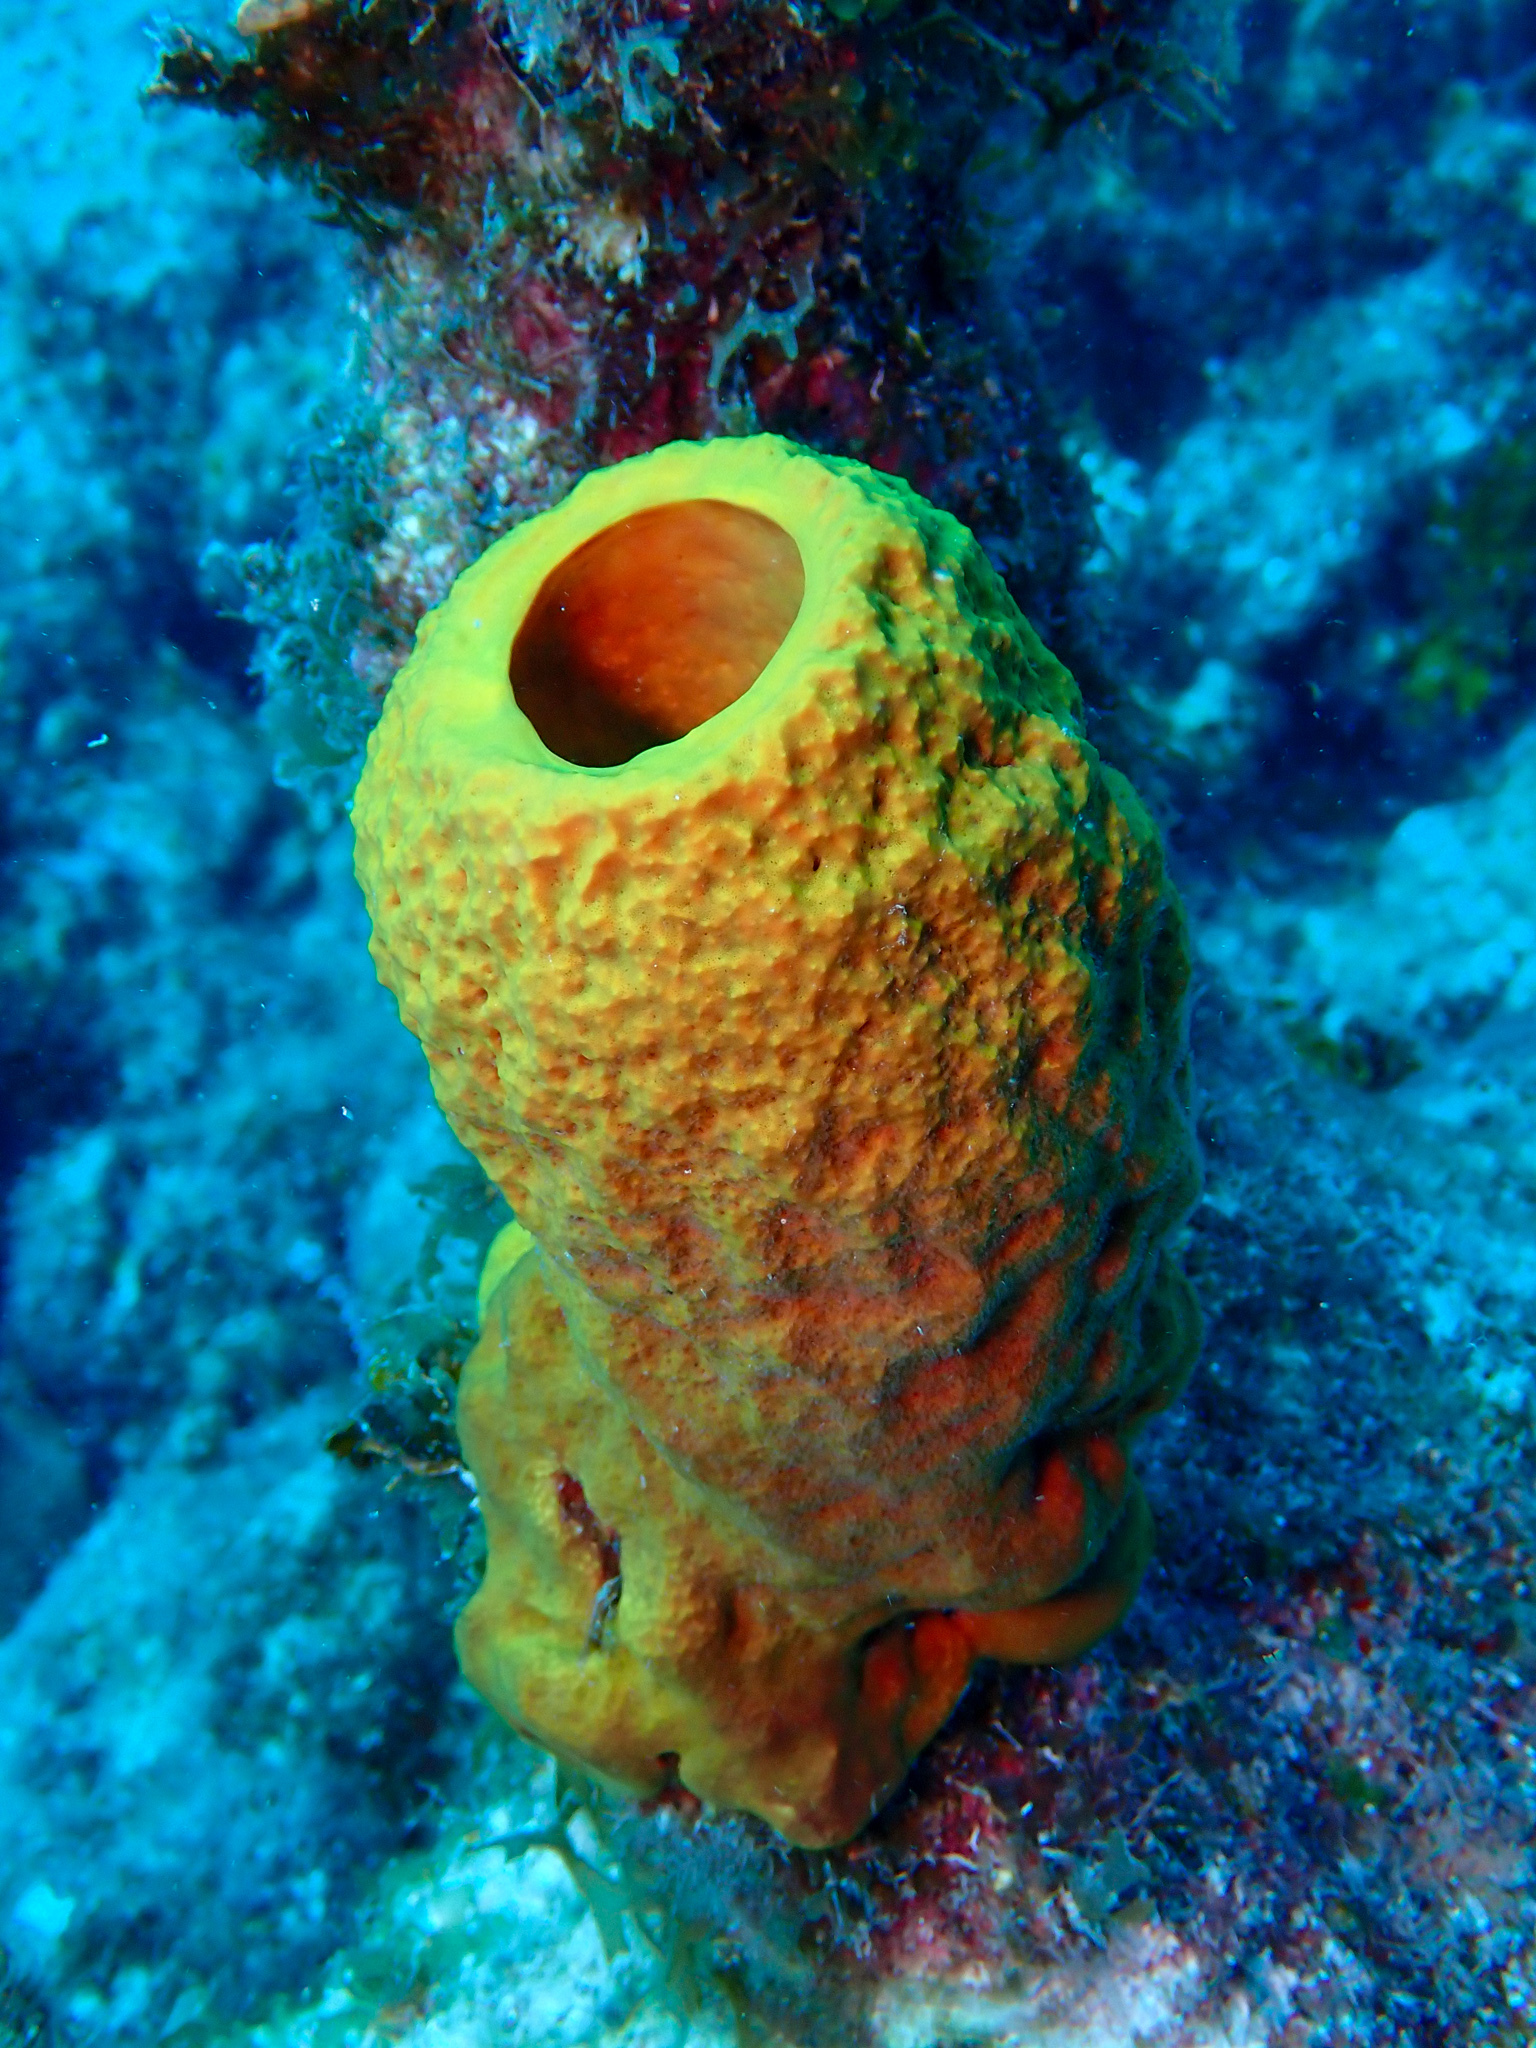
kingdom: Animalia
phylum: Porifera
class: Demospongiae
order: Verongiida
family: Aplysinidae
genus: Aplysina
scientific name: Aplysina fistularis
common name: Candle sponge
